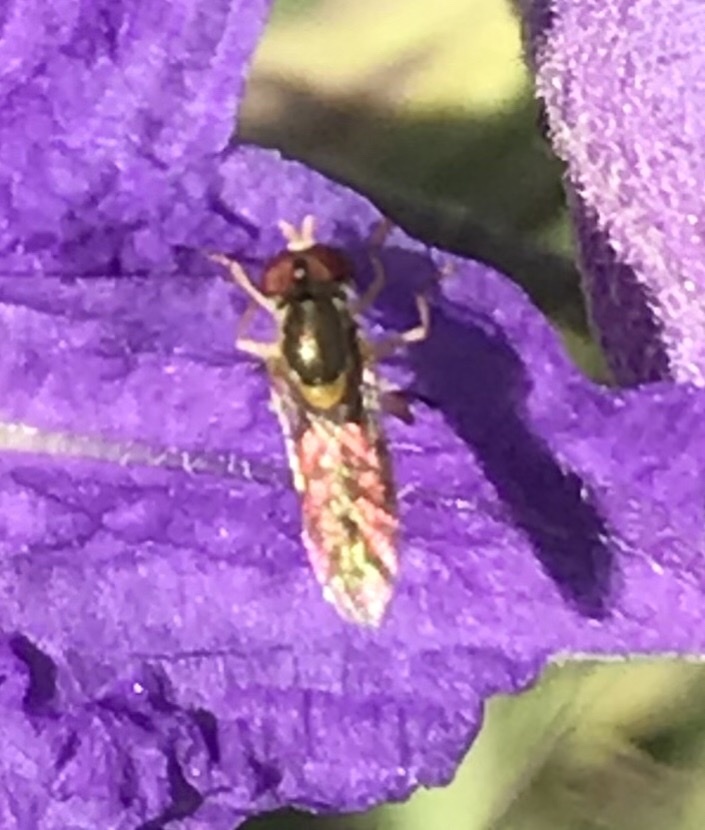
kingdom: Animalia
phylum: Arthropoda
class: Insecta
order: Diptera
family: Syrphidae
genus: Toxomerus
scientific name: Toxomerus marginatus
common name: Syrphid fly
